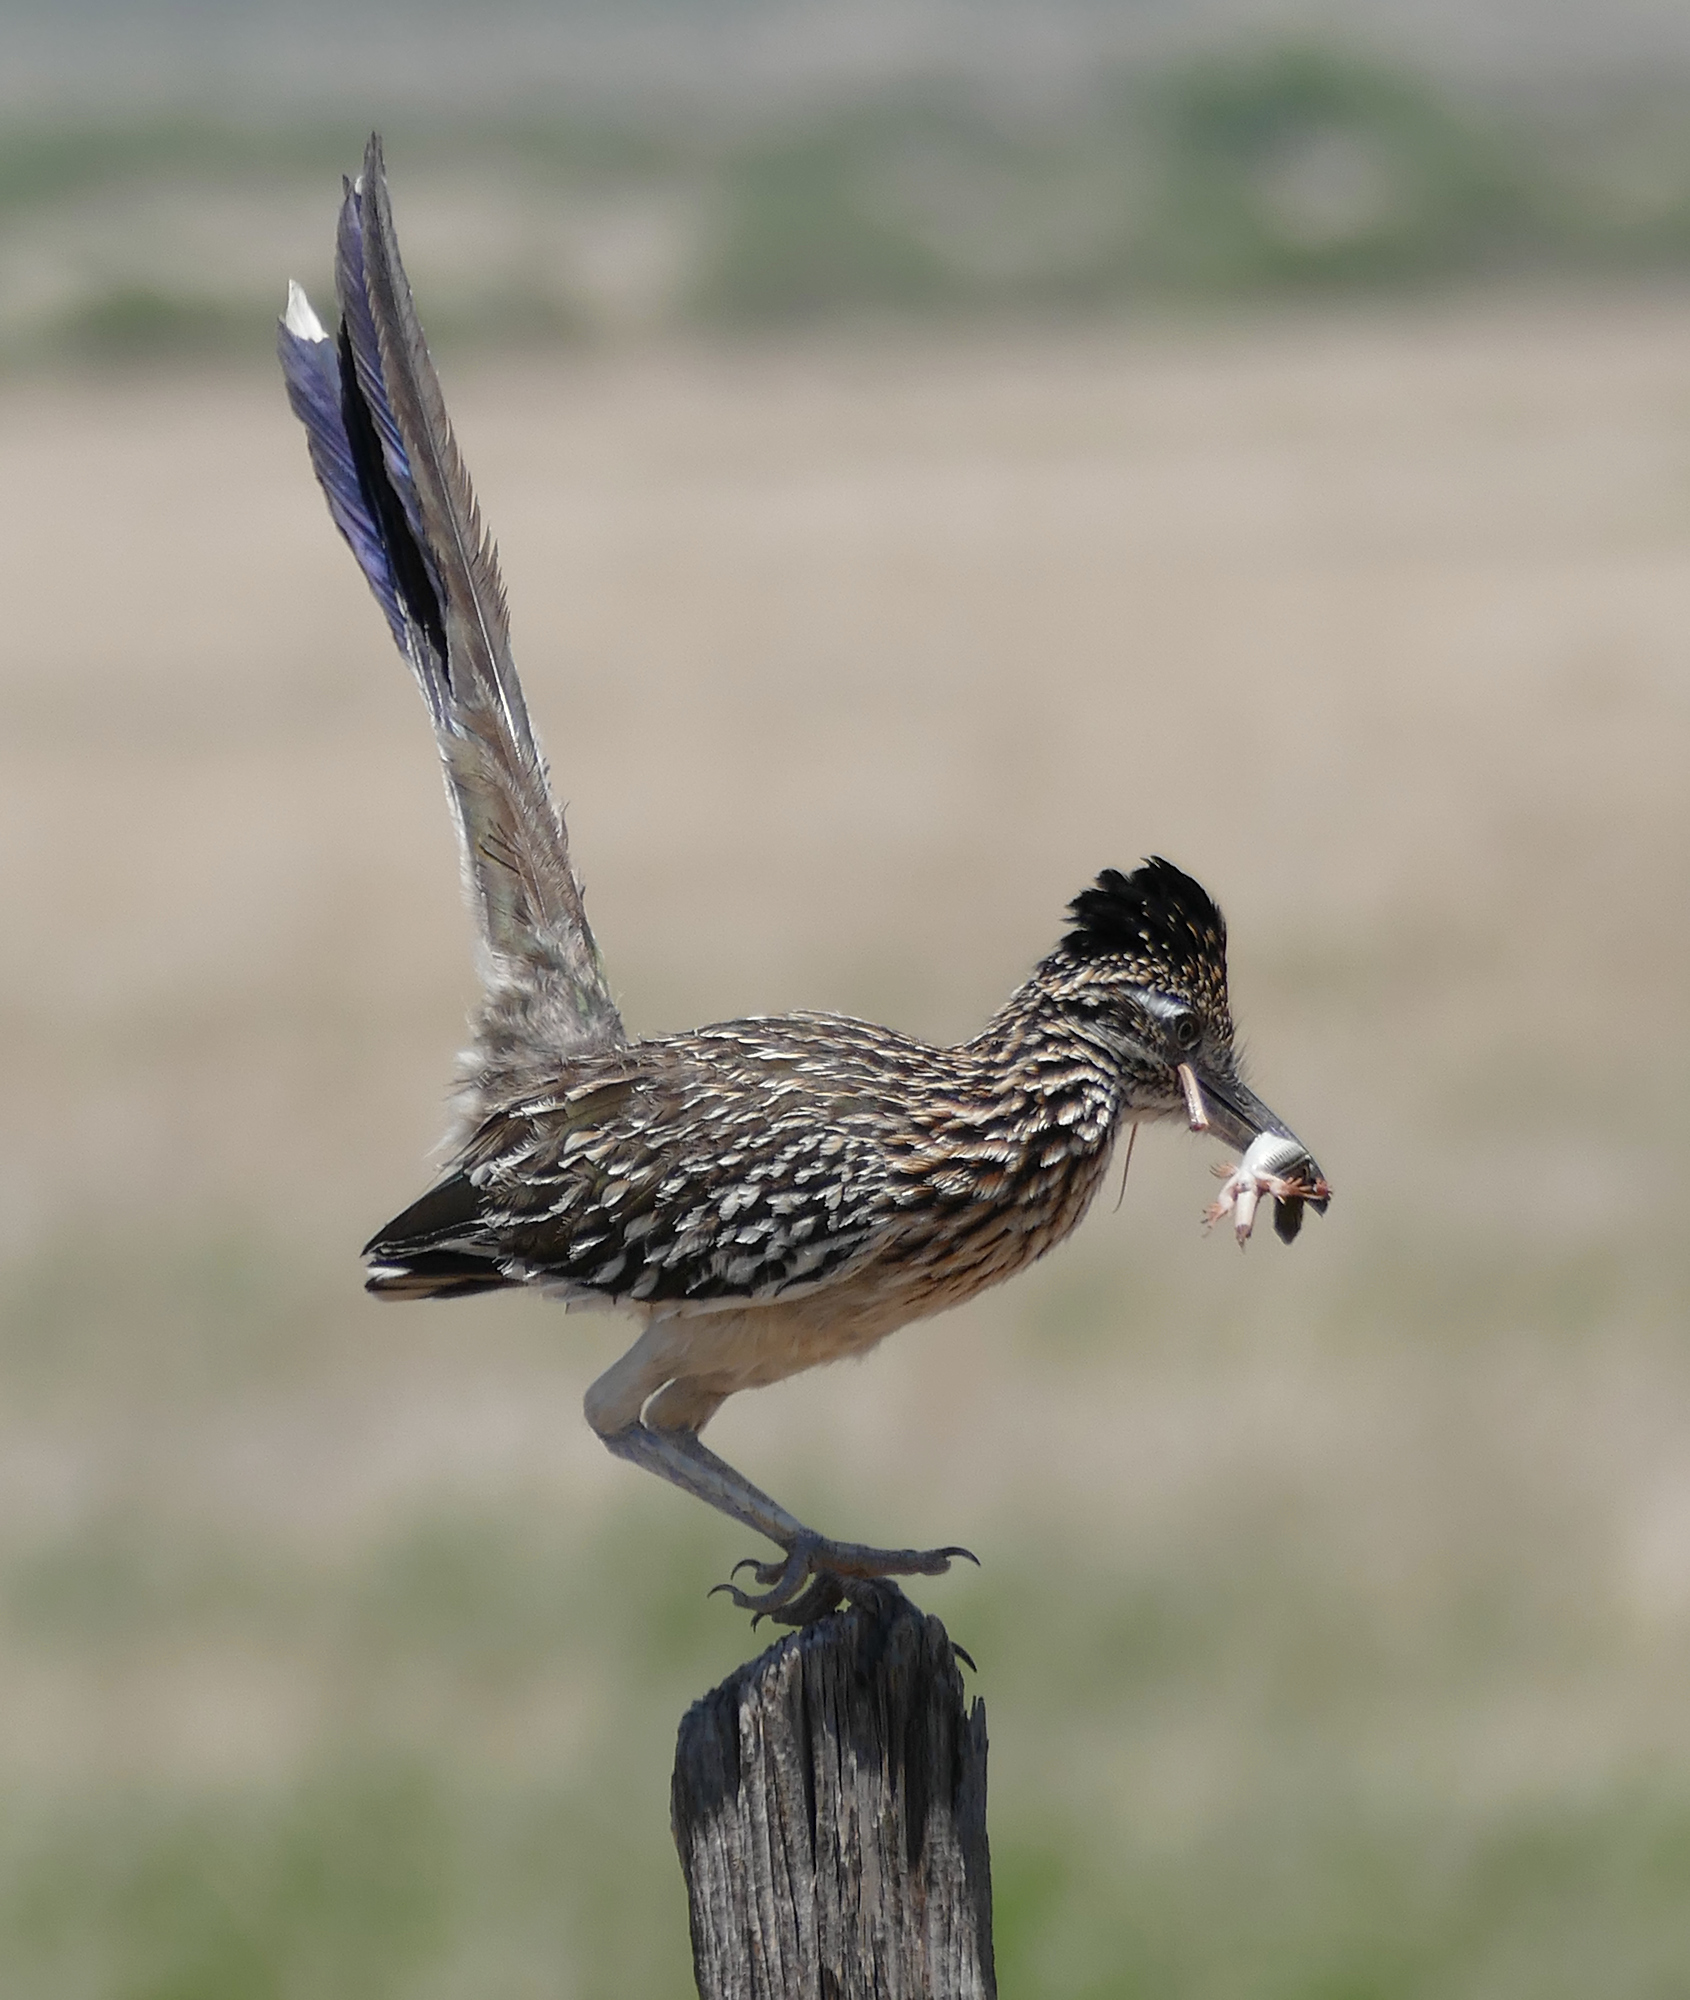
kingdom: Animalia
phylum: Chordata
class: Aves
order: Cuculiformes
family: Cuculidae
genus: Geococcyx
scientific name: Geococcyx californianus
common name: Greater roadrunner
